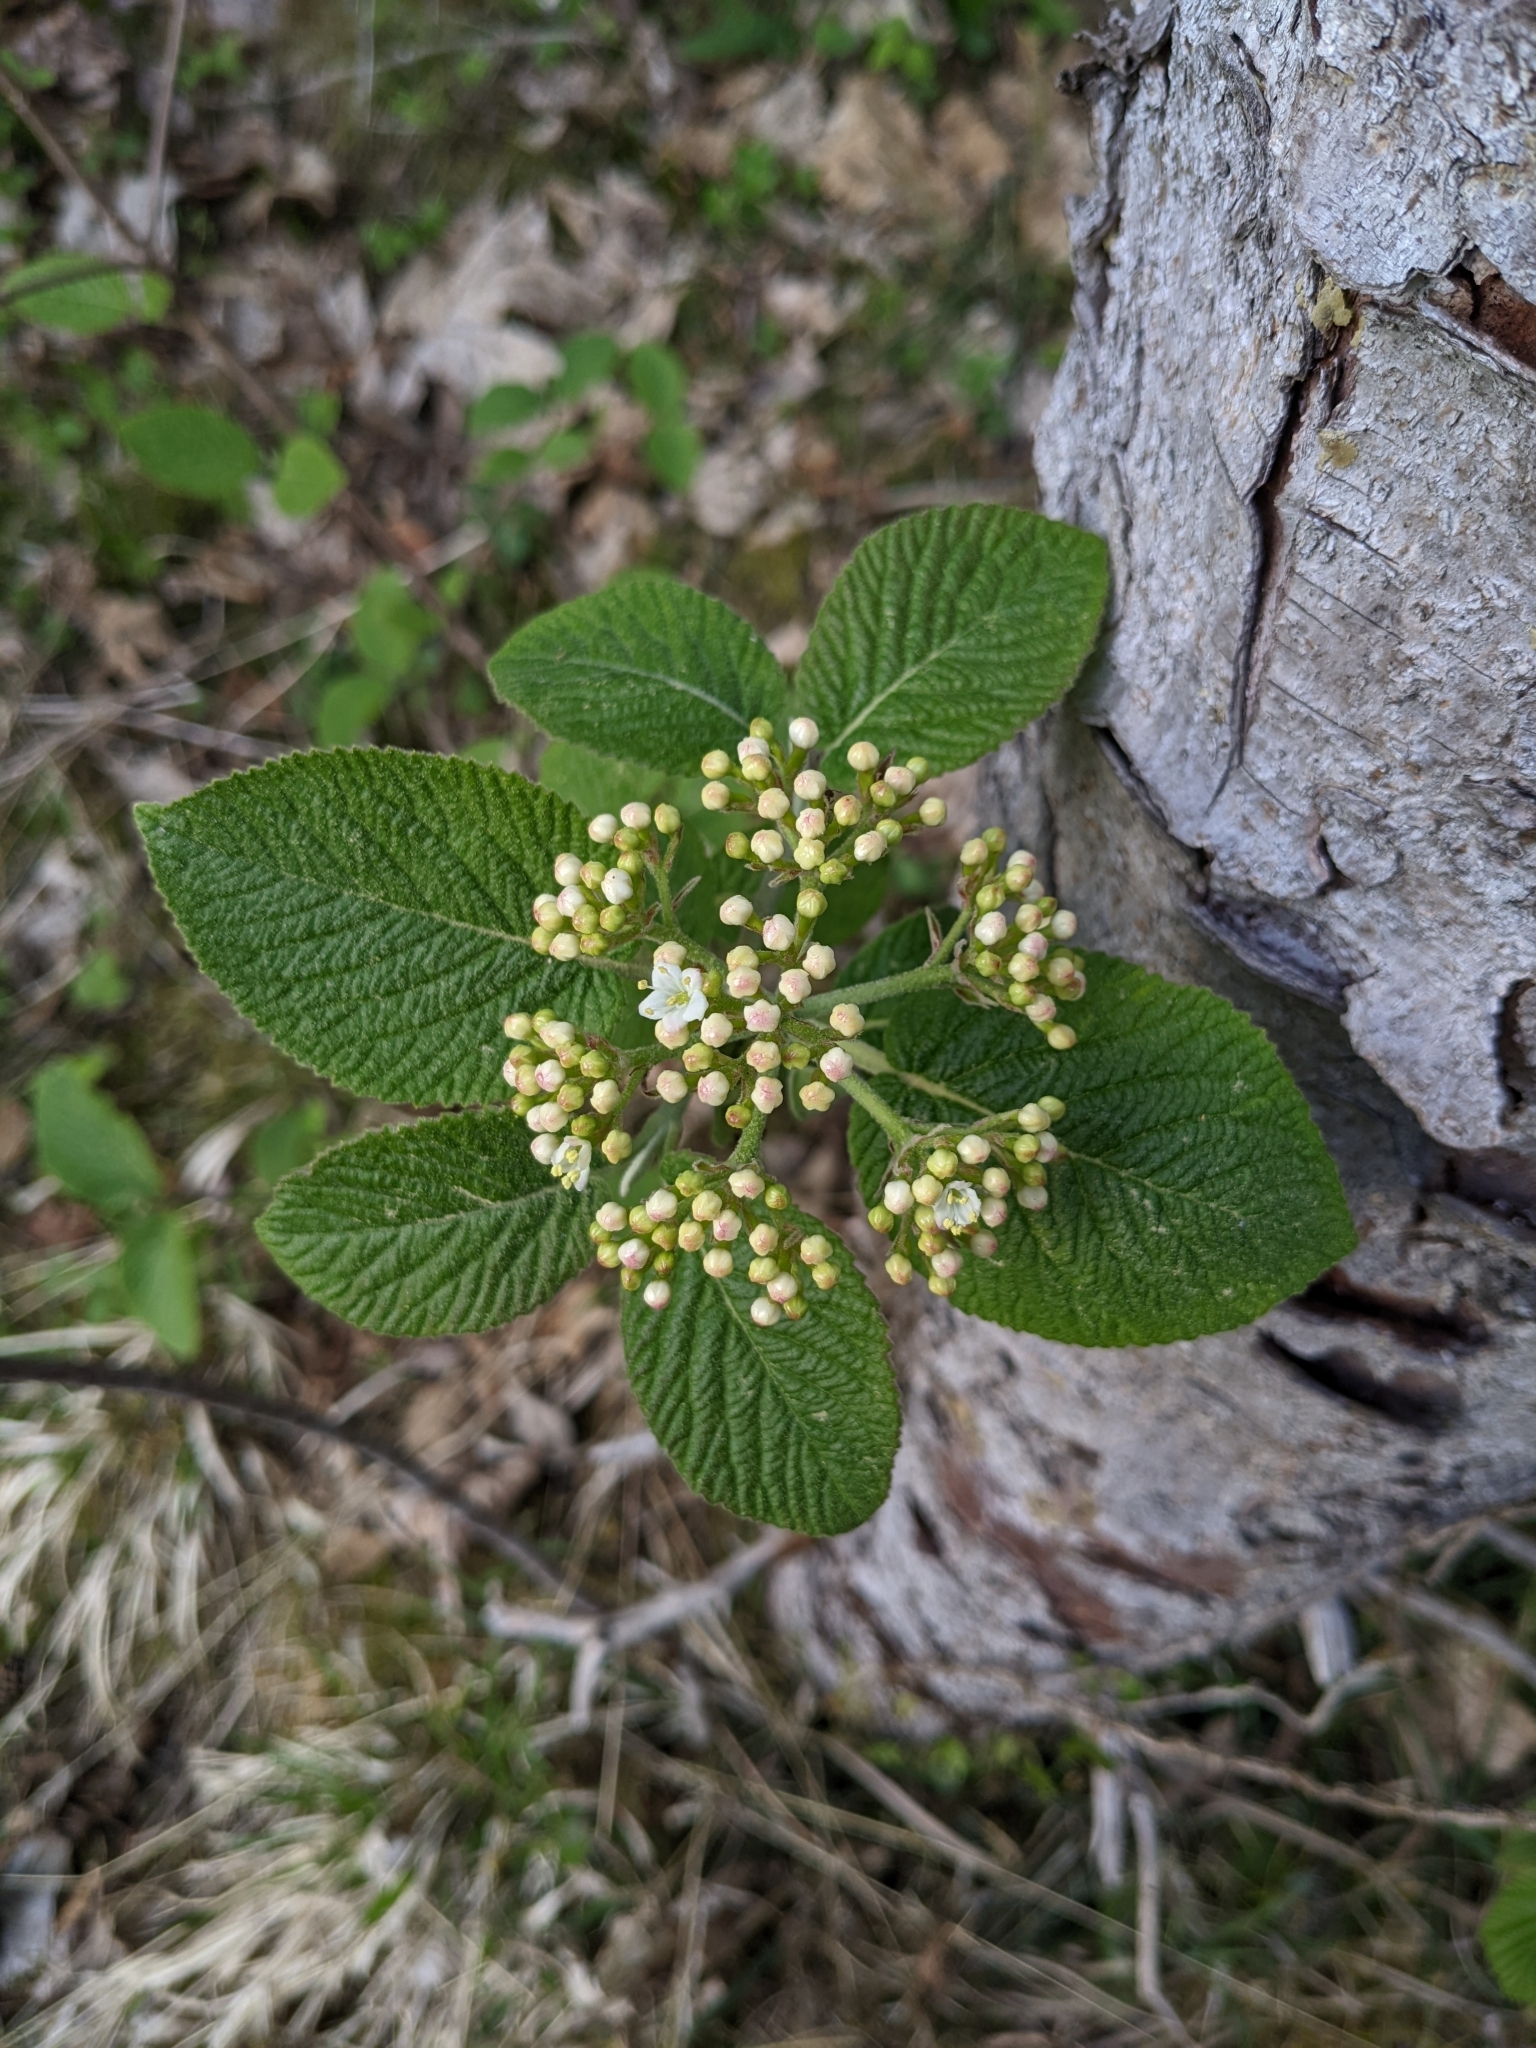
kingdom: Plantae
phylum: Tracheophyta
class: Magnoliopsida
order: Dipsacales
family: Viburnaceae
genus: Viburnum
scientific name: Viburnum lantana
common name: Wayfaring tree
